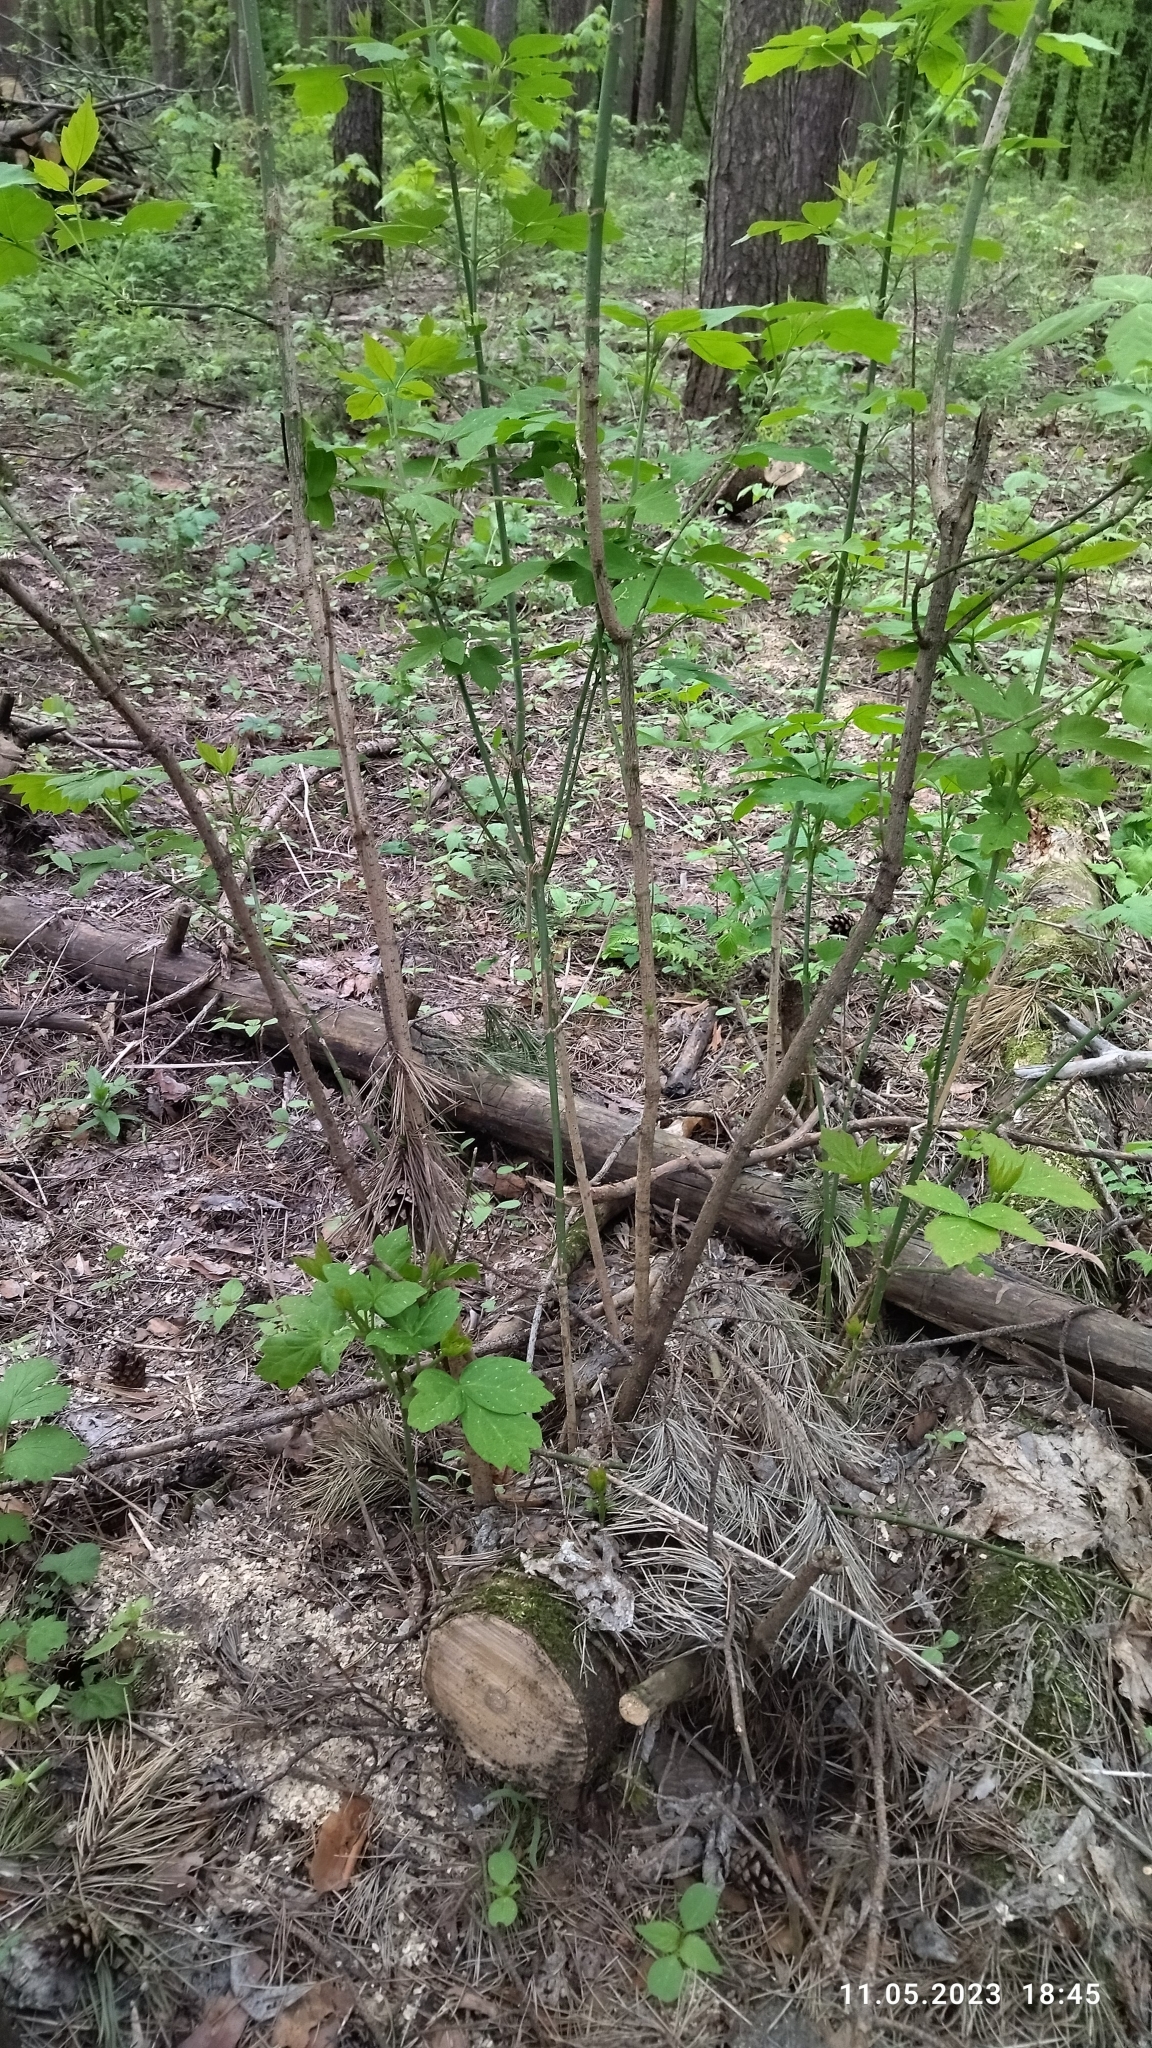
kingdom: Plantae
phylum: Tracheophyta
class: Magnoliopsida
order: Sapindales
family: Sapindaceae
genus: Acer
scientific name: Acer negundo
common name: Ashleaf maple
